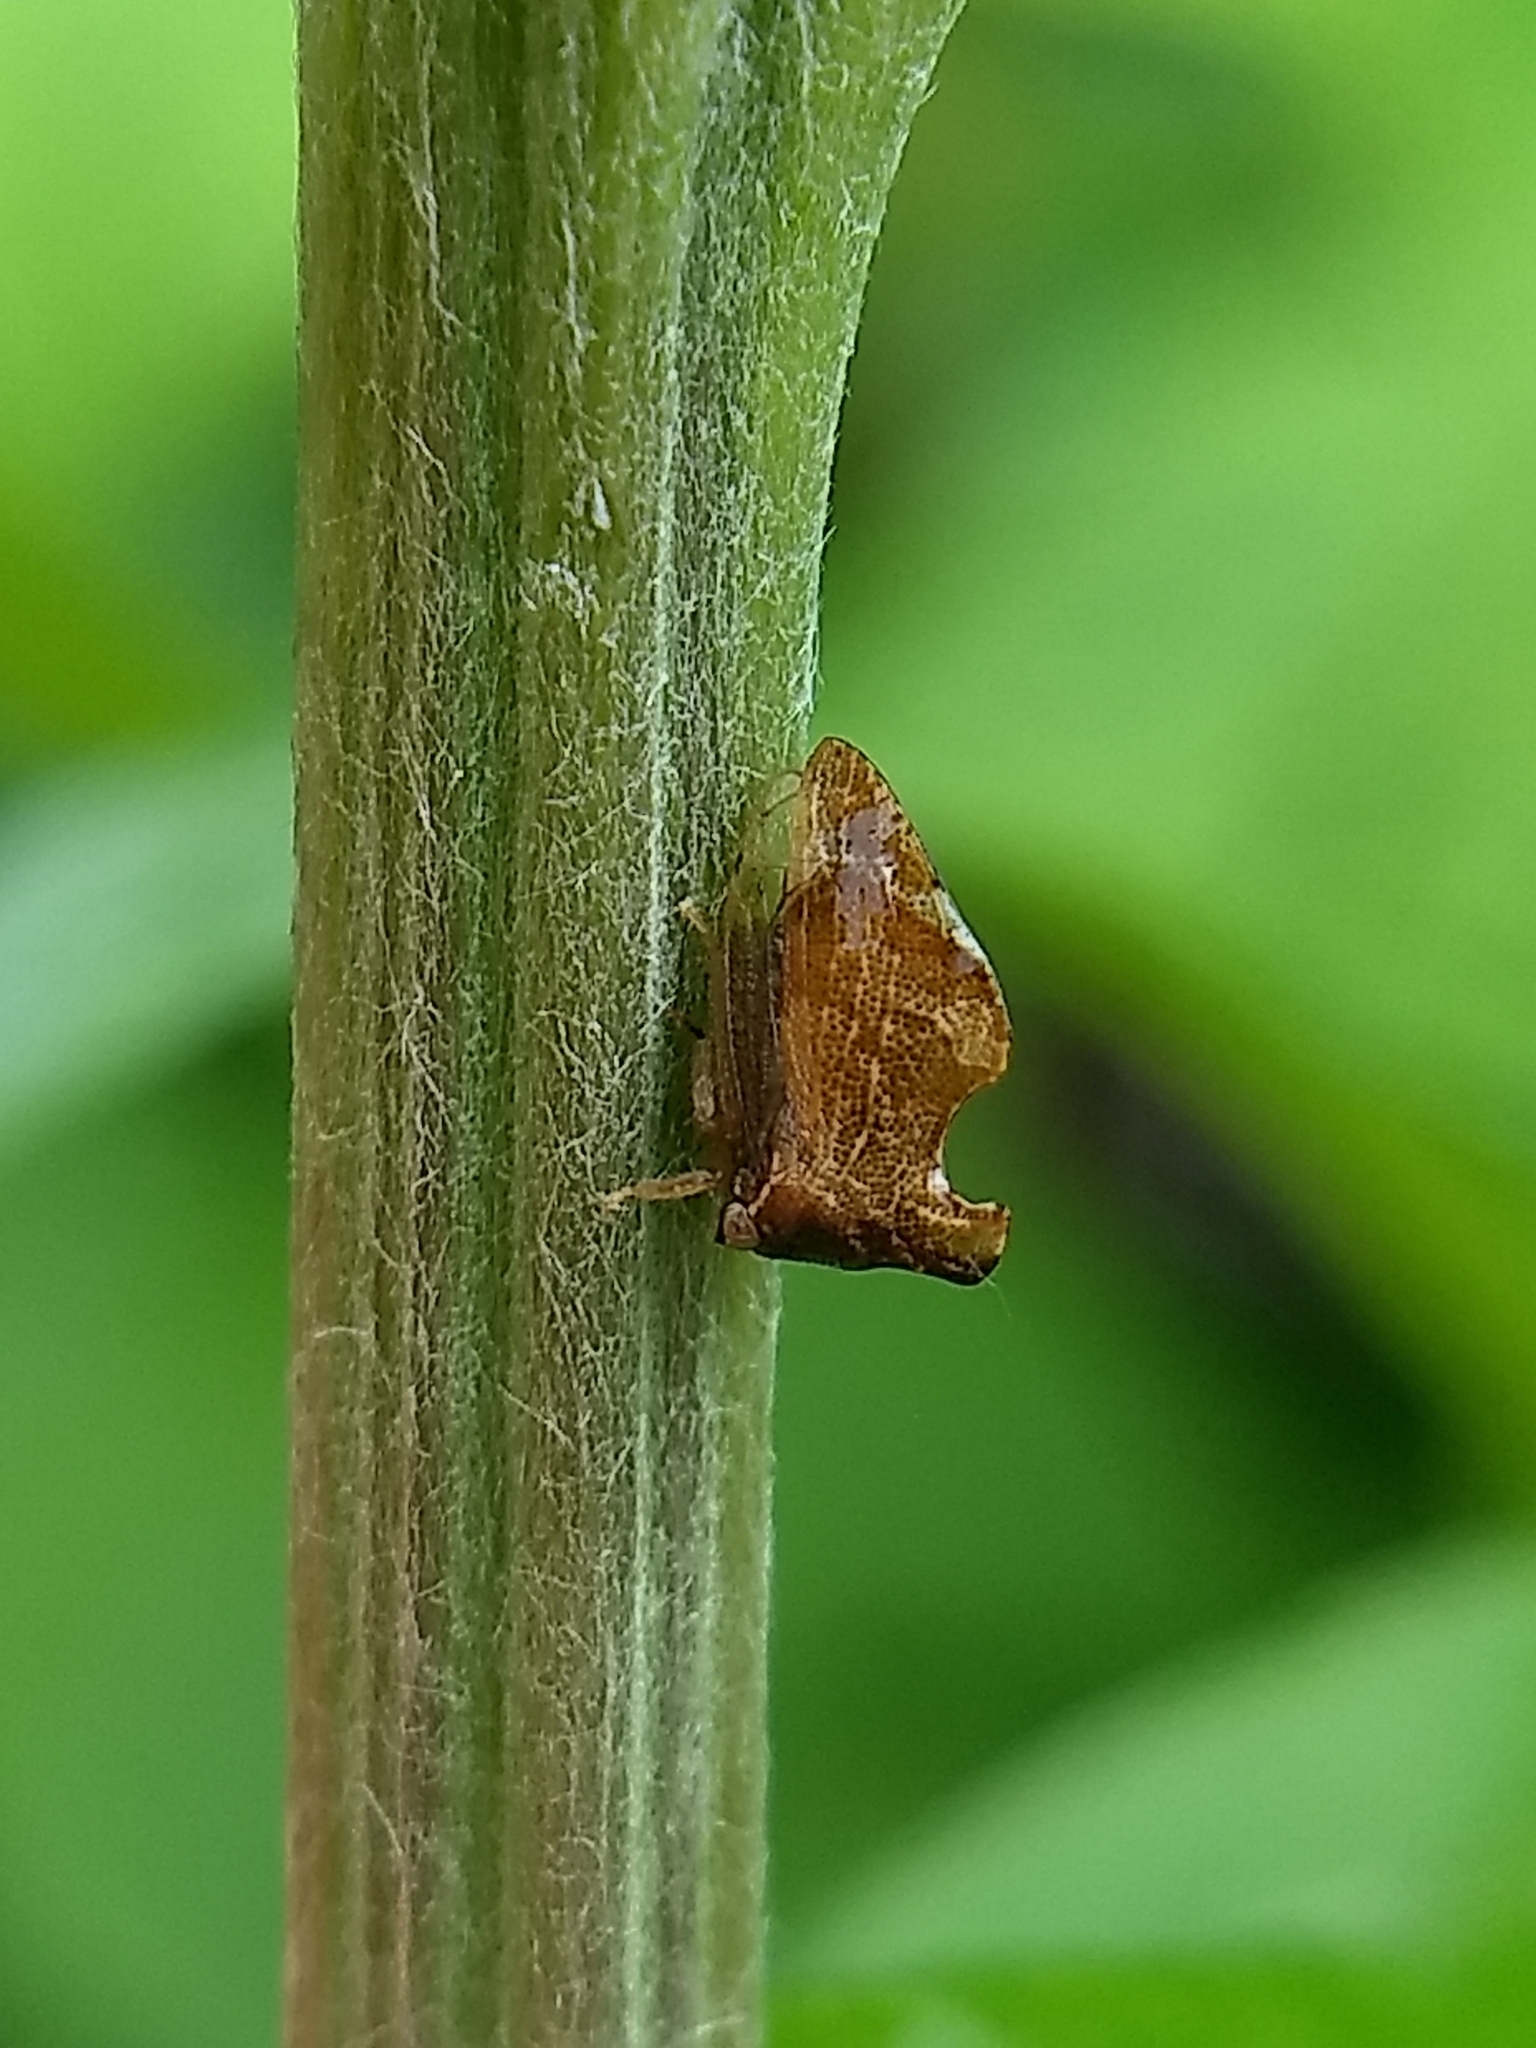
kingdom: Animalia
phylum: Arthropoda
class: Insecta
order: Hemiptera
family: Membracidae
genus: Entylia
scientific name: Entylia carinata
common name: Keeled treehopper
